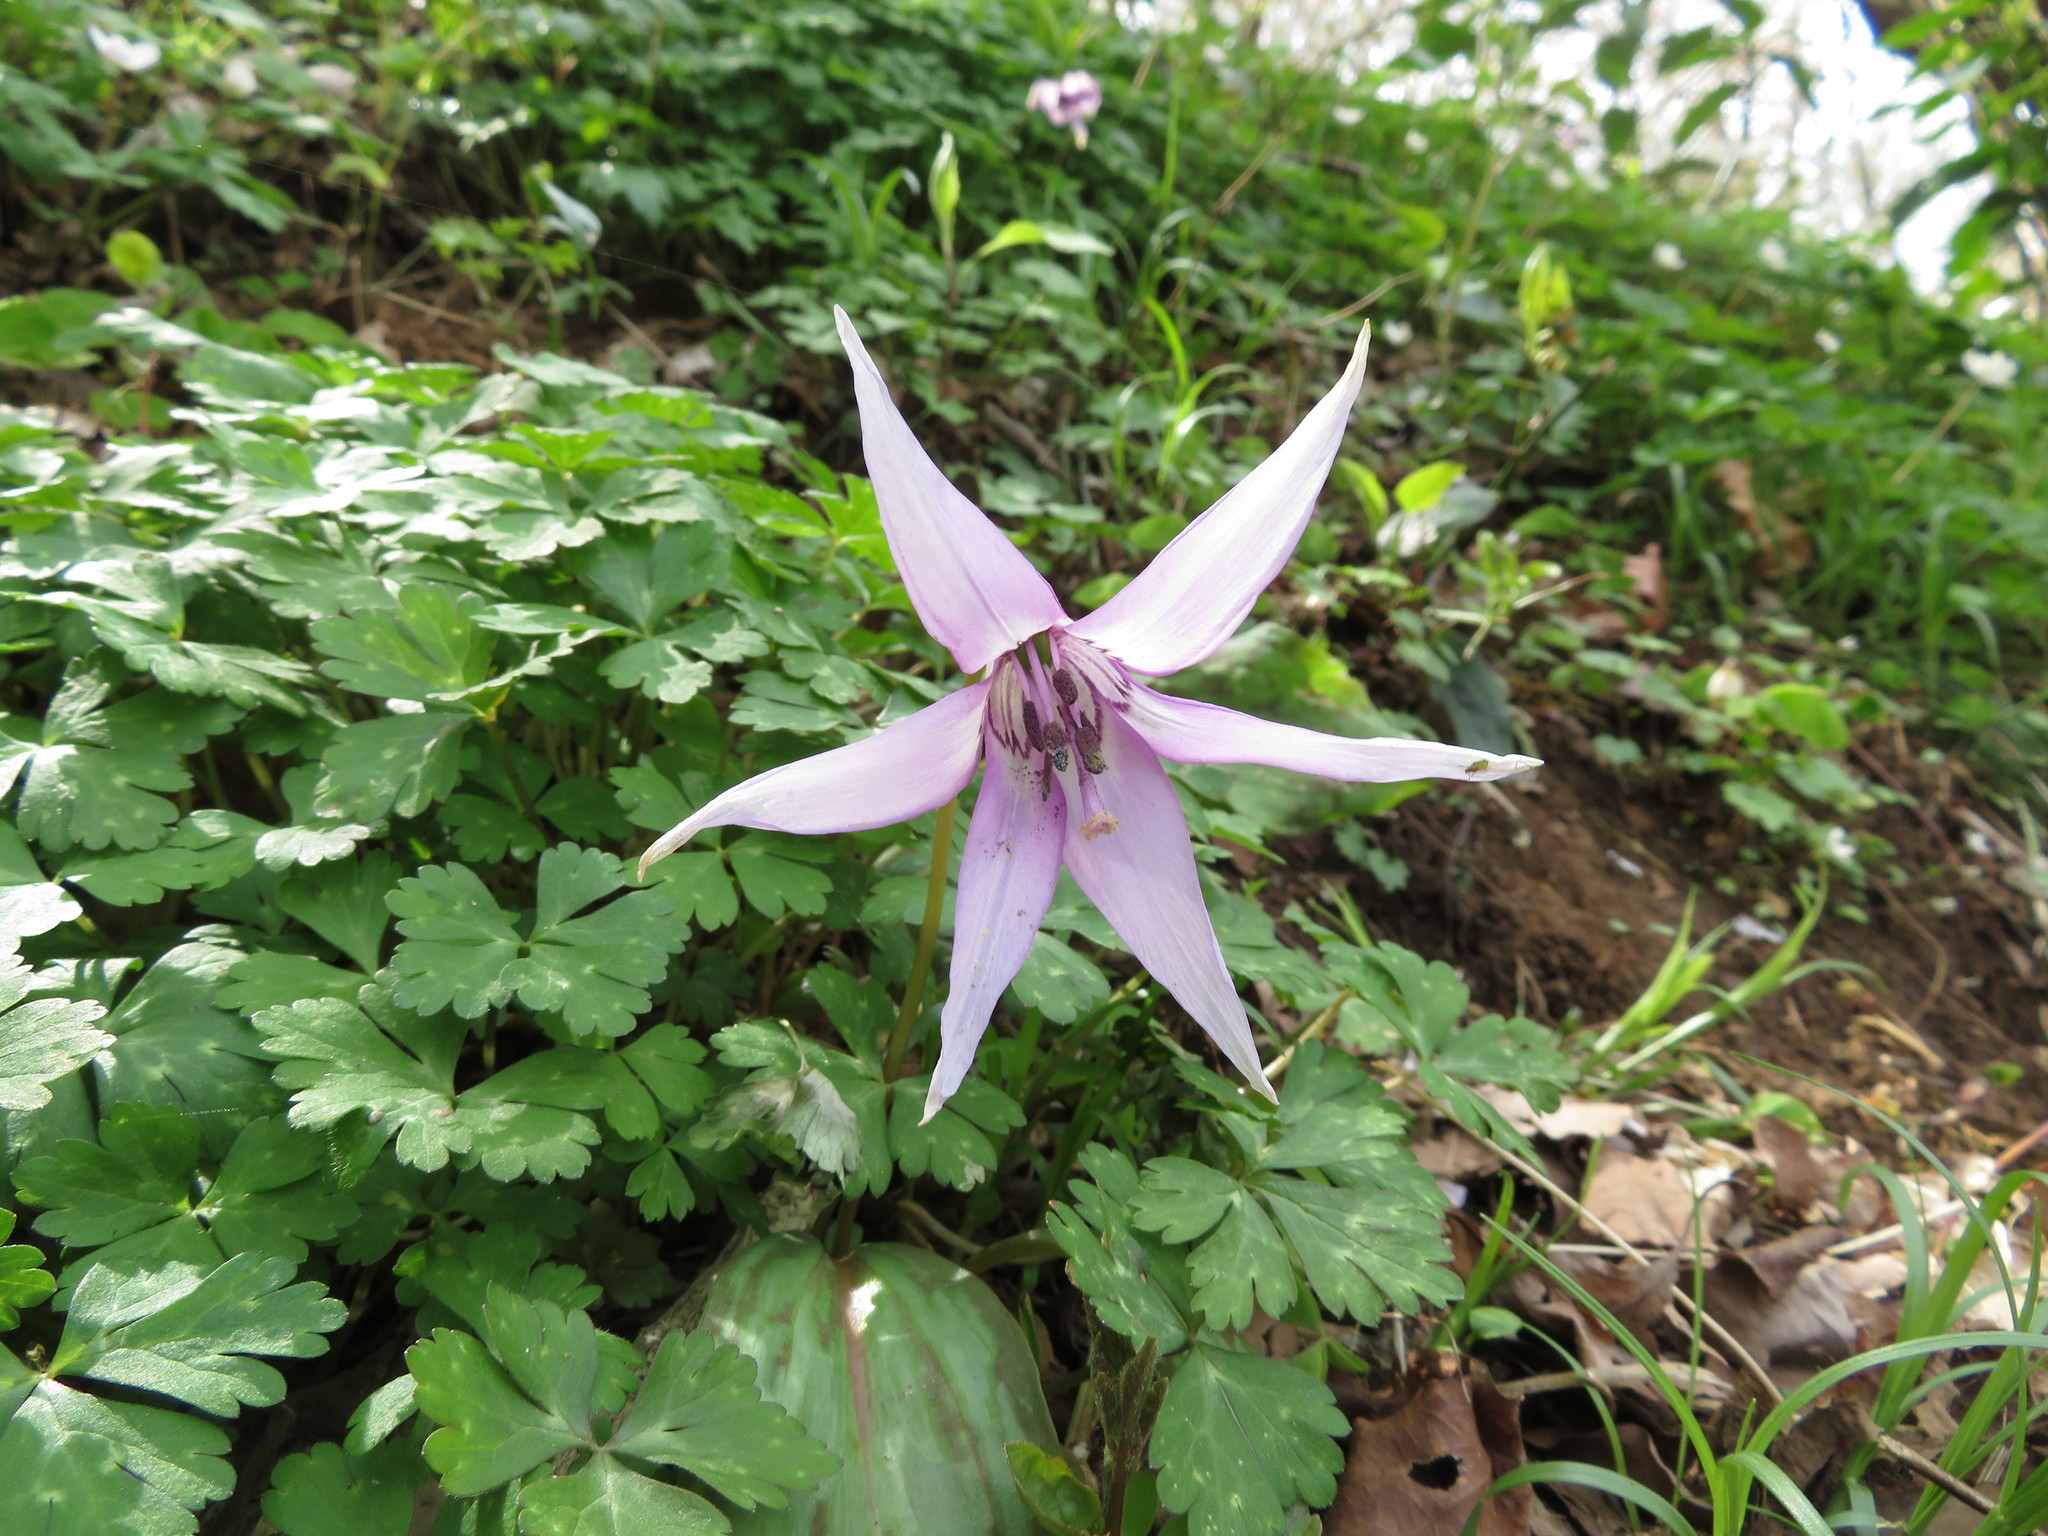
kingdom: Plantae
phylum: Tracheophyta
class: Liliopsida
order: Liliales
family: Liliaceae
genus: Erythronium
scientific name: Erythronium japonicum
